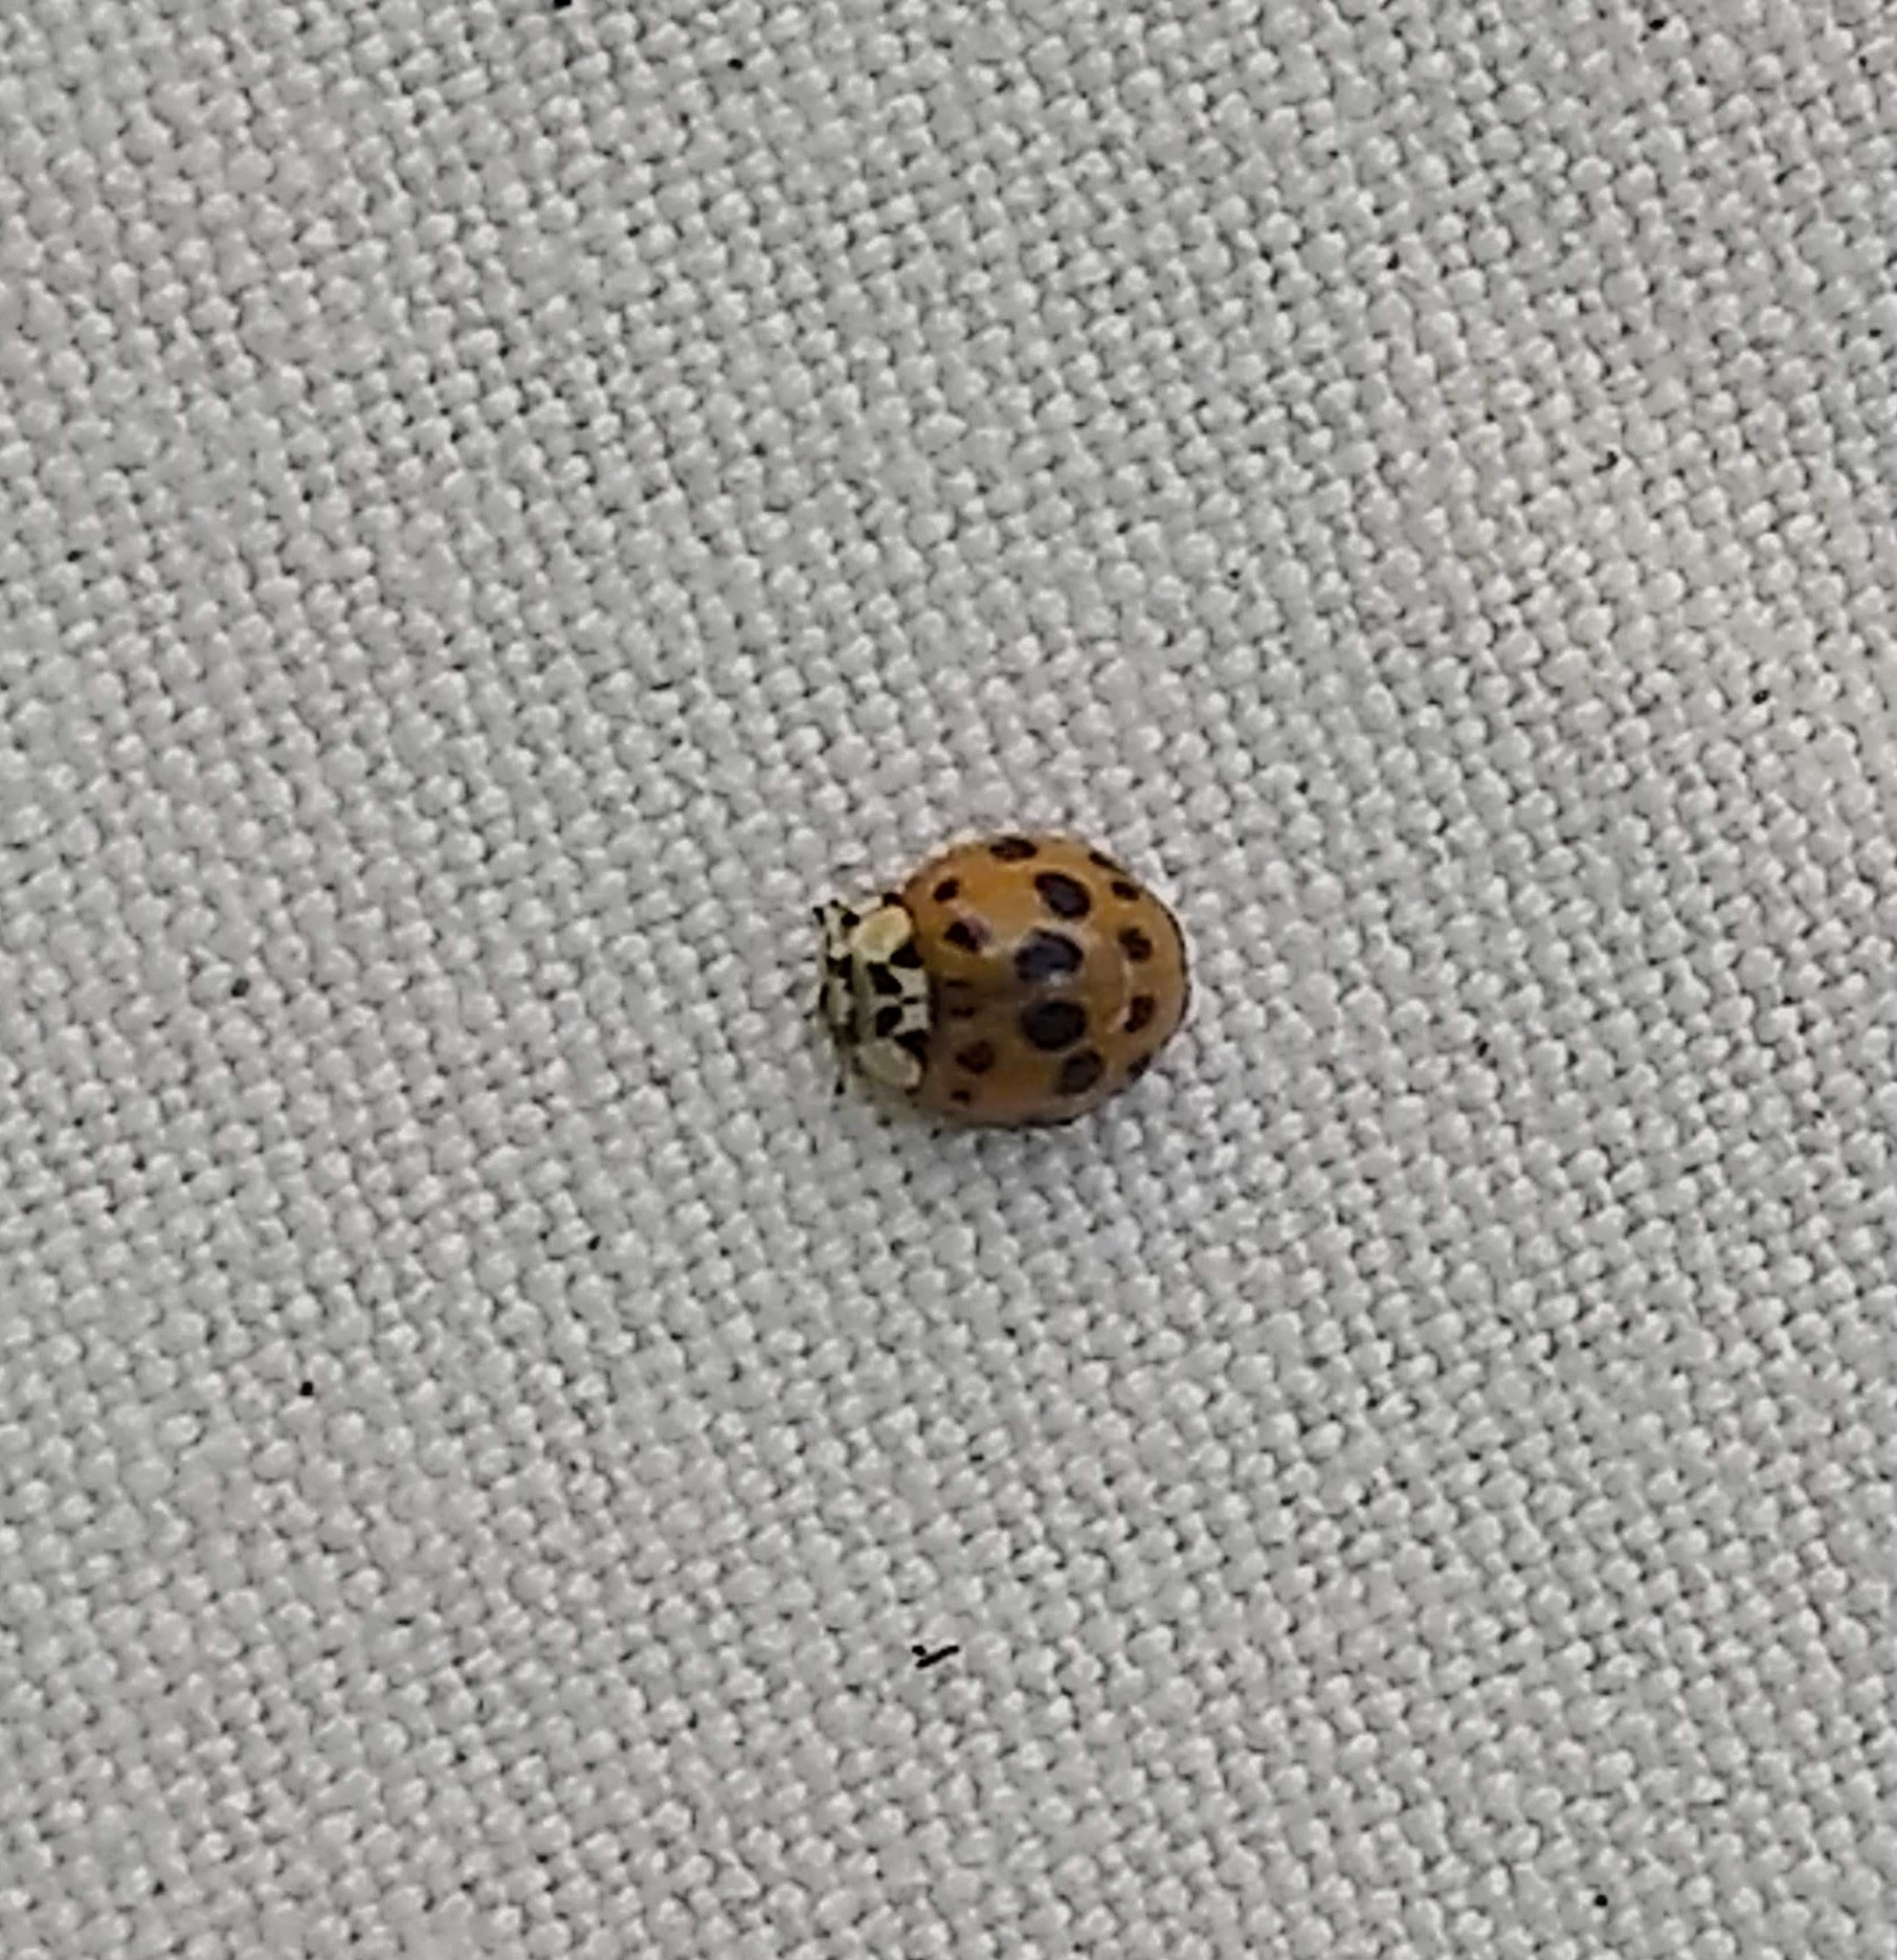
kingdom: Animalia
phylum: Arthropoda
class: Insecta
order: Coleoptera
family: Coccinellidae
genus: Harmonia
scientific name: Harmonia axyridis
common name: Harlequin ladybird
